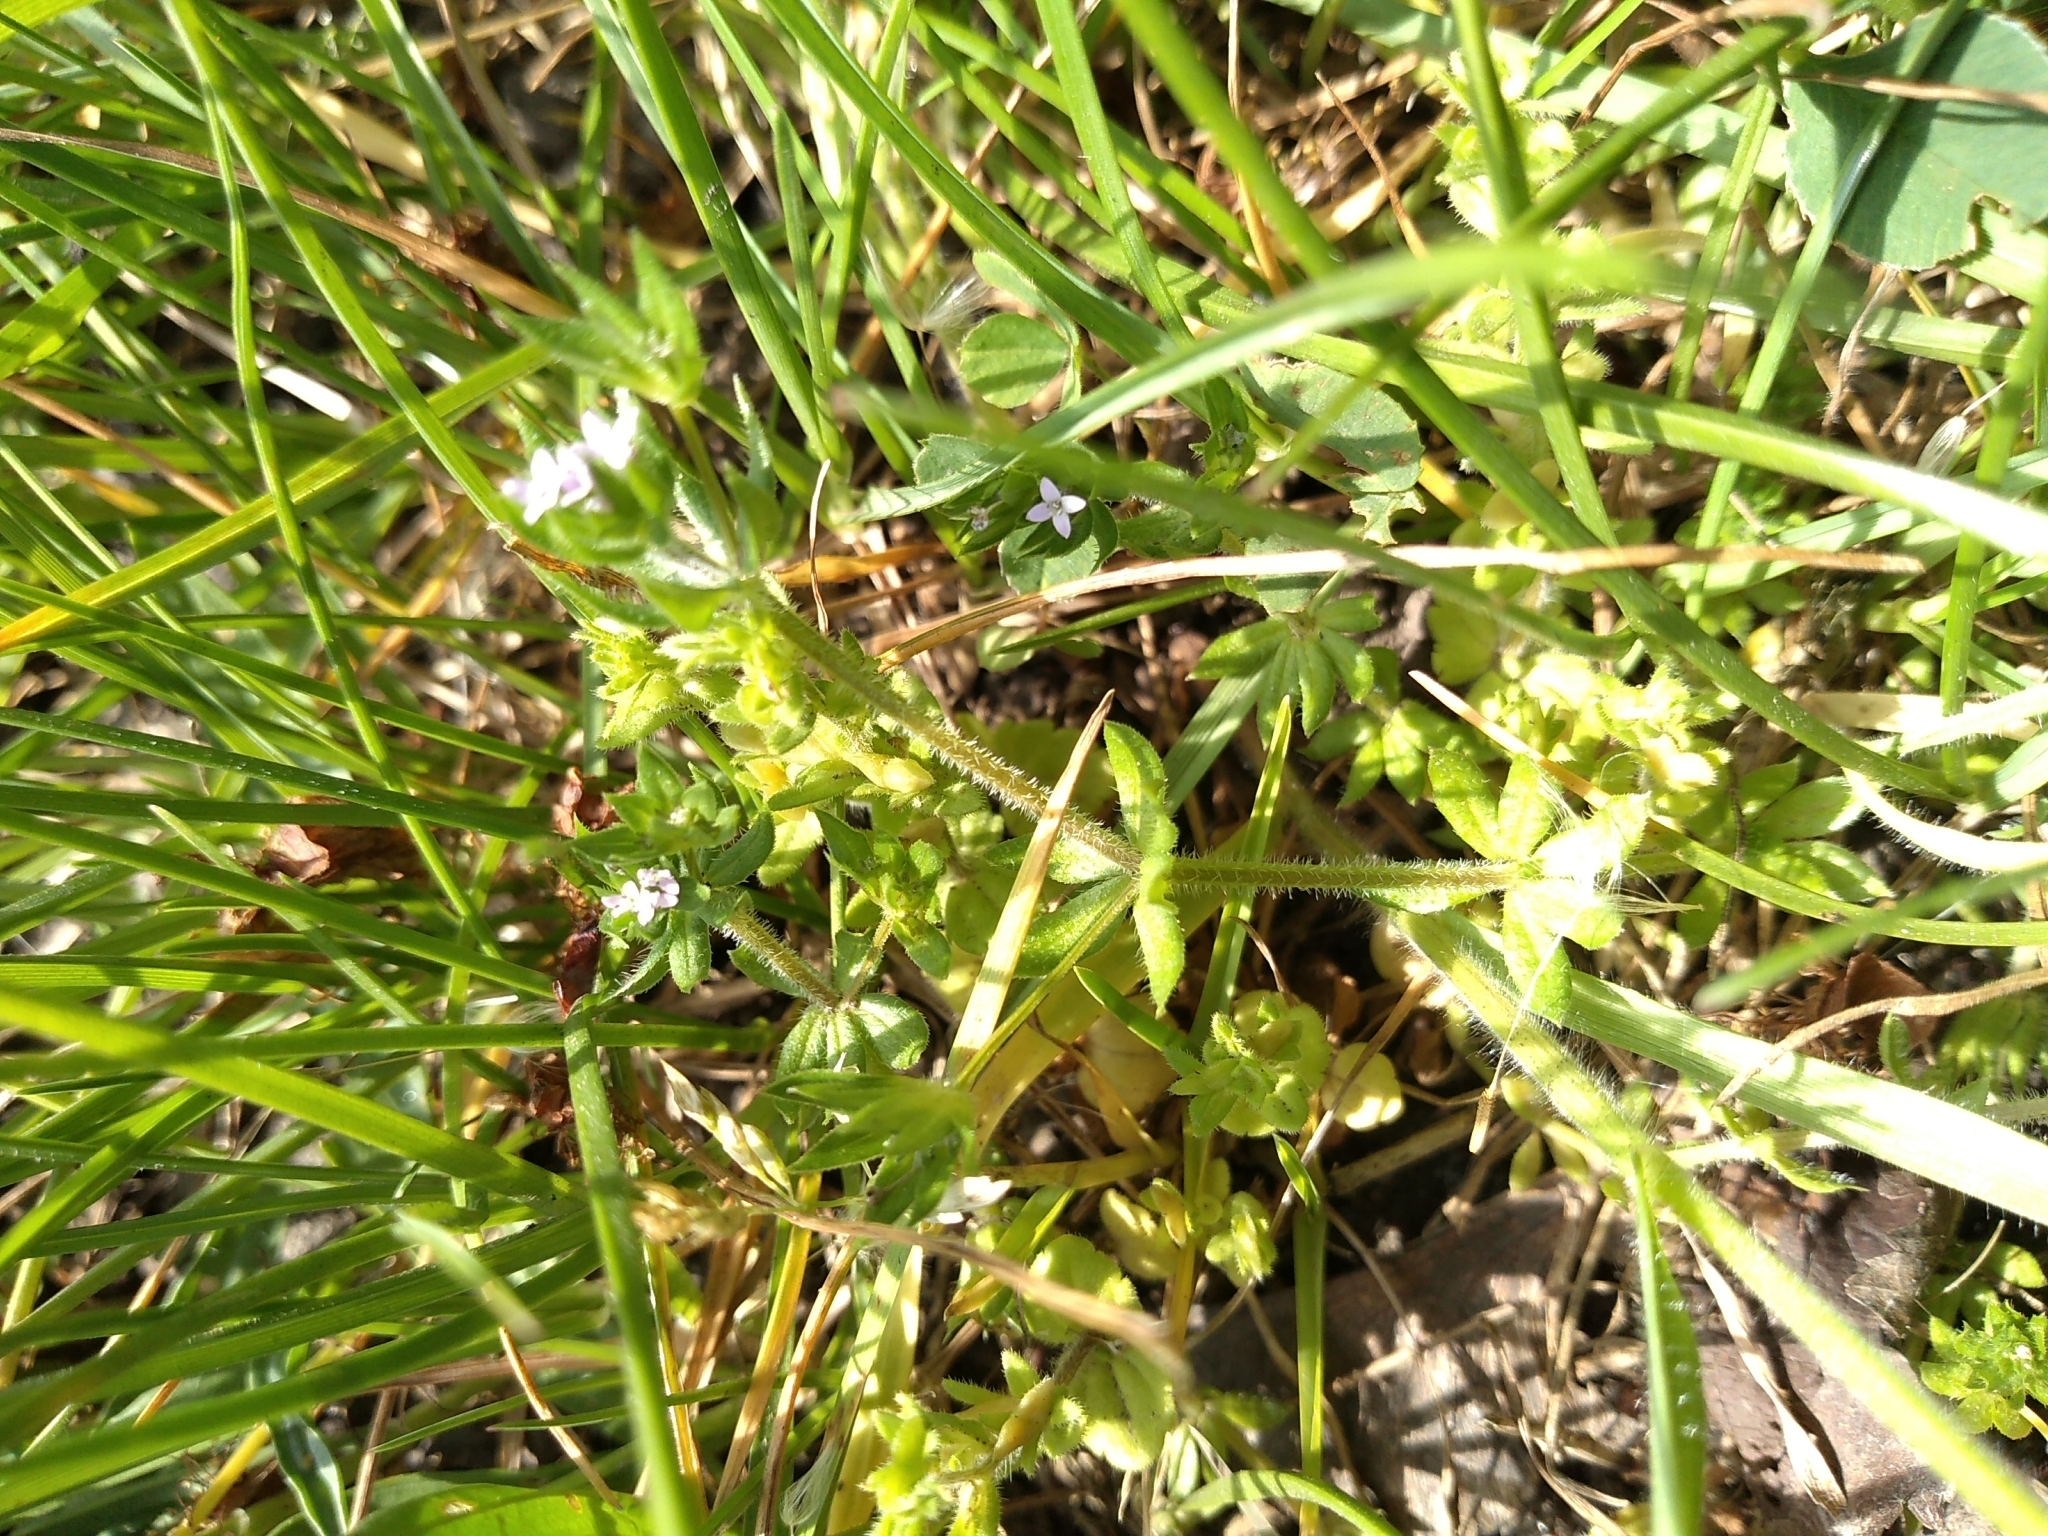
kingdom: Plantae
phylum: Tracheophyta
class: Magnoliopsida
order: Gentianales
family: Rubiaceae
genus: Sherardia
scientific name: Sherardia arvensis
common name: Field madder
